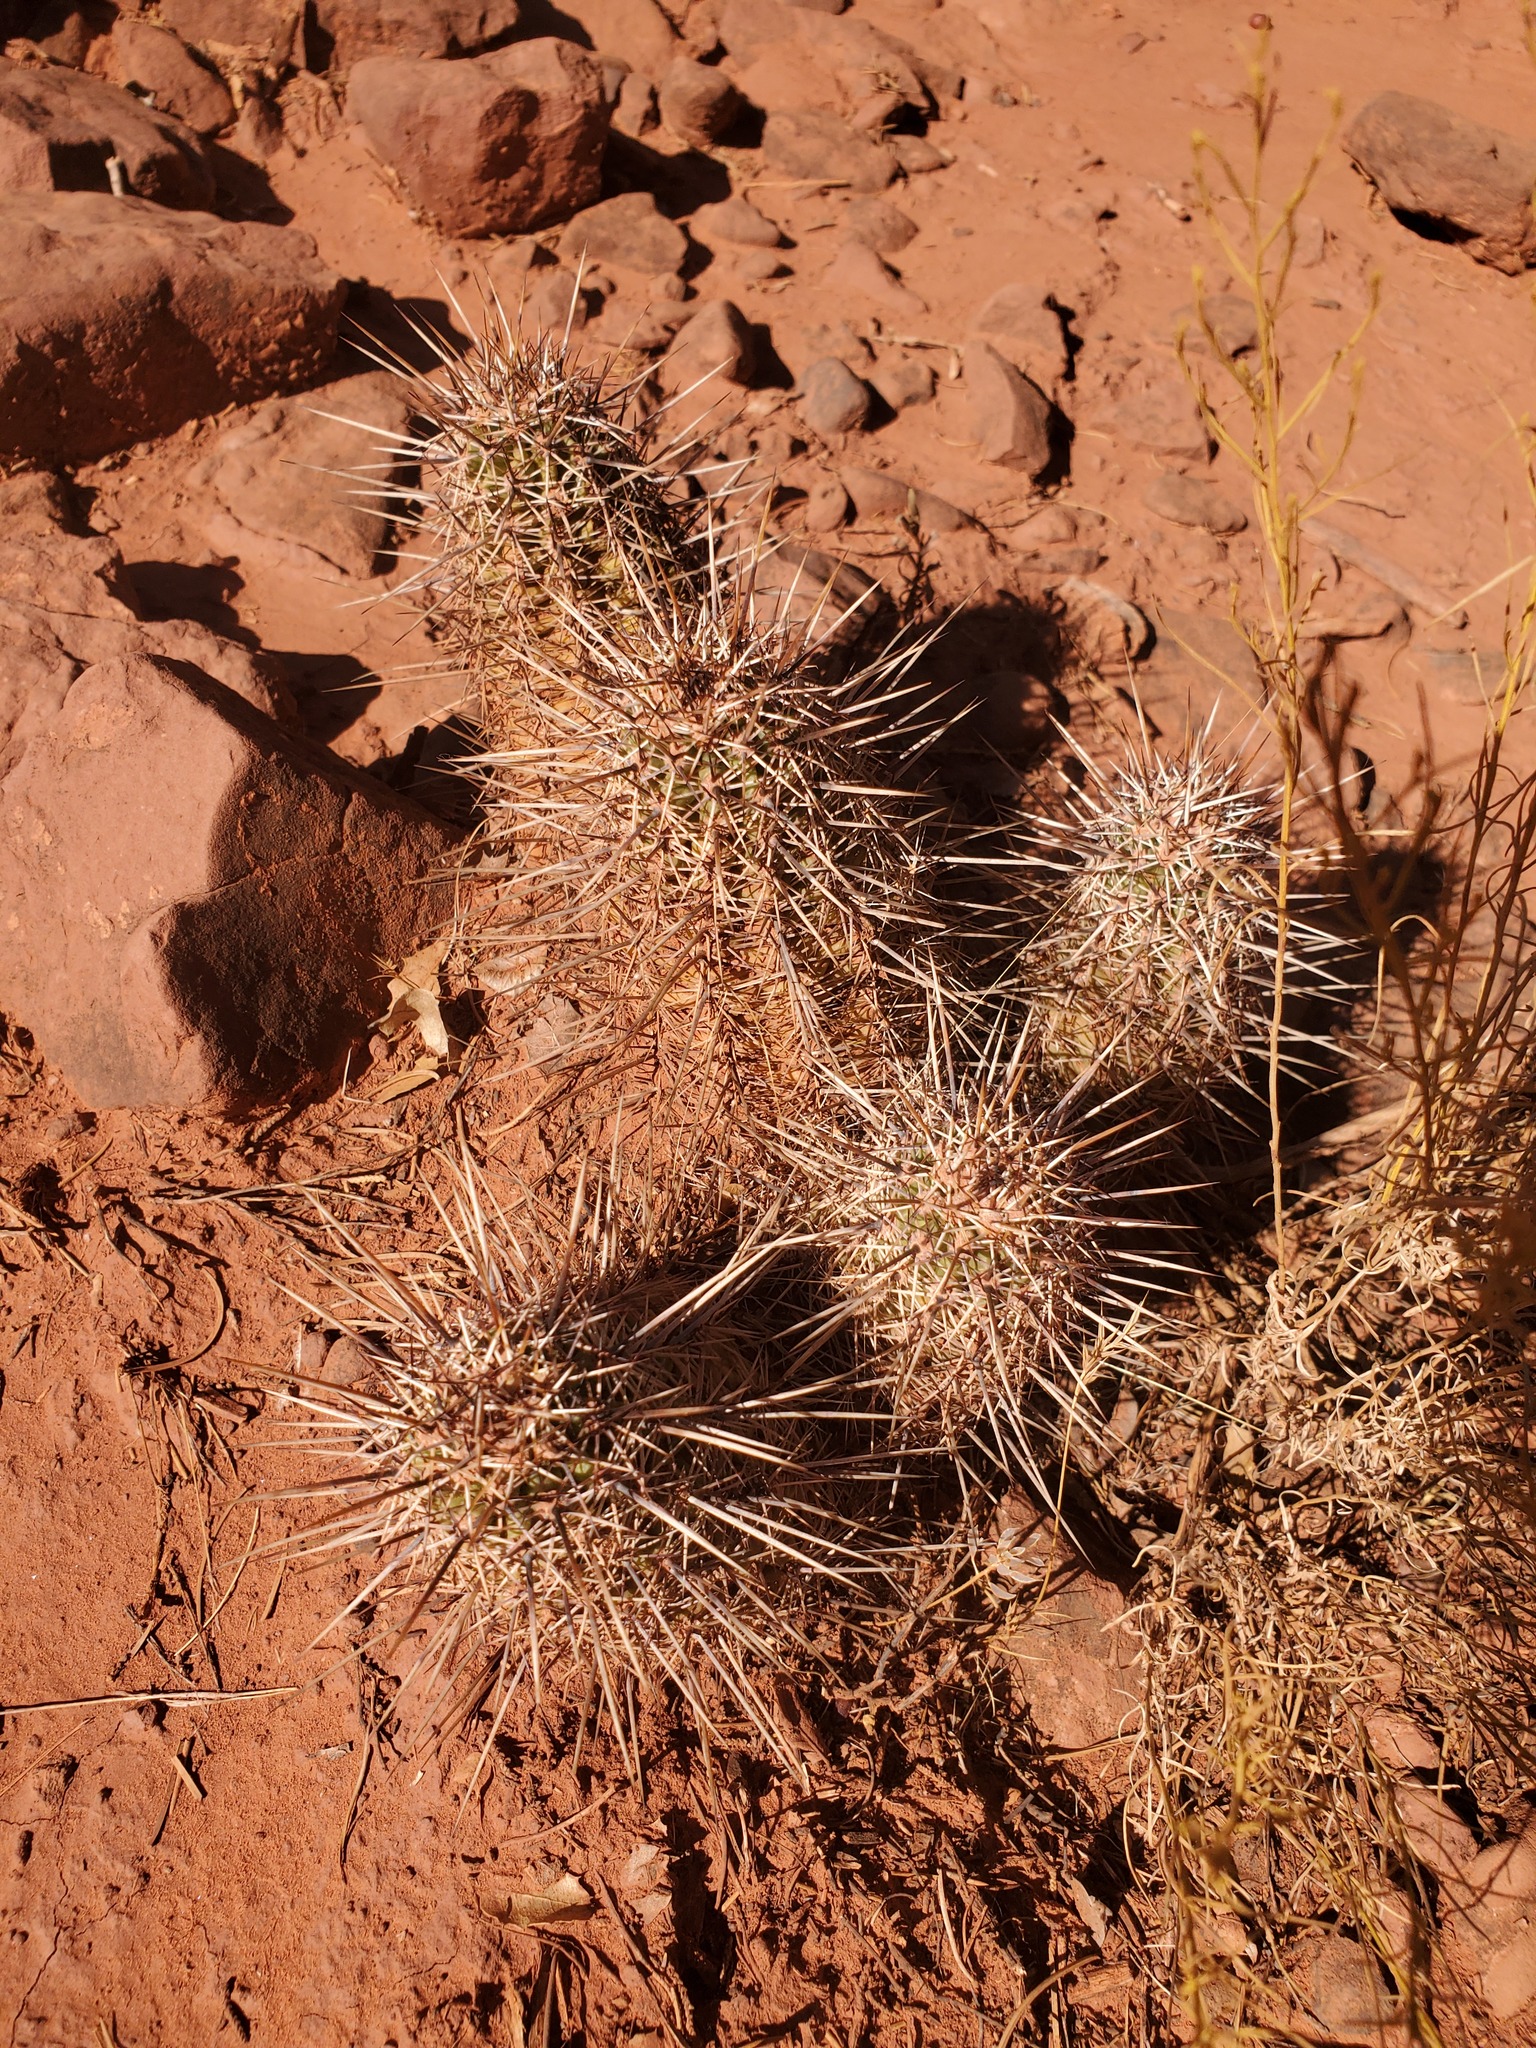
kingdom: Plantae
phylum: Tracheophyta
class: Magnoliopsida
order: Caryophyllales
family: Cactaceae
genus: Echinocereus
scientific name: Echinocereus fasciculatus
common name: Bundle hedgehog
